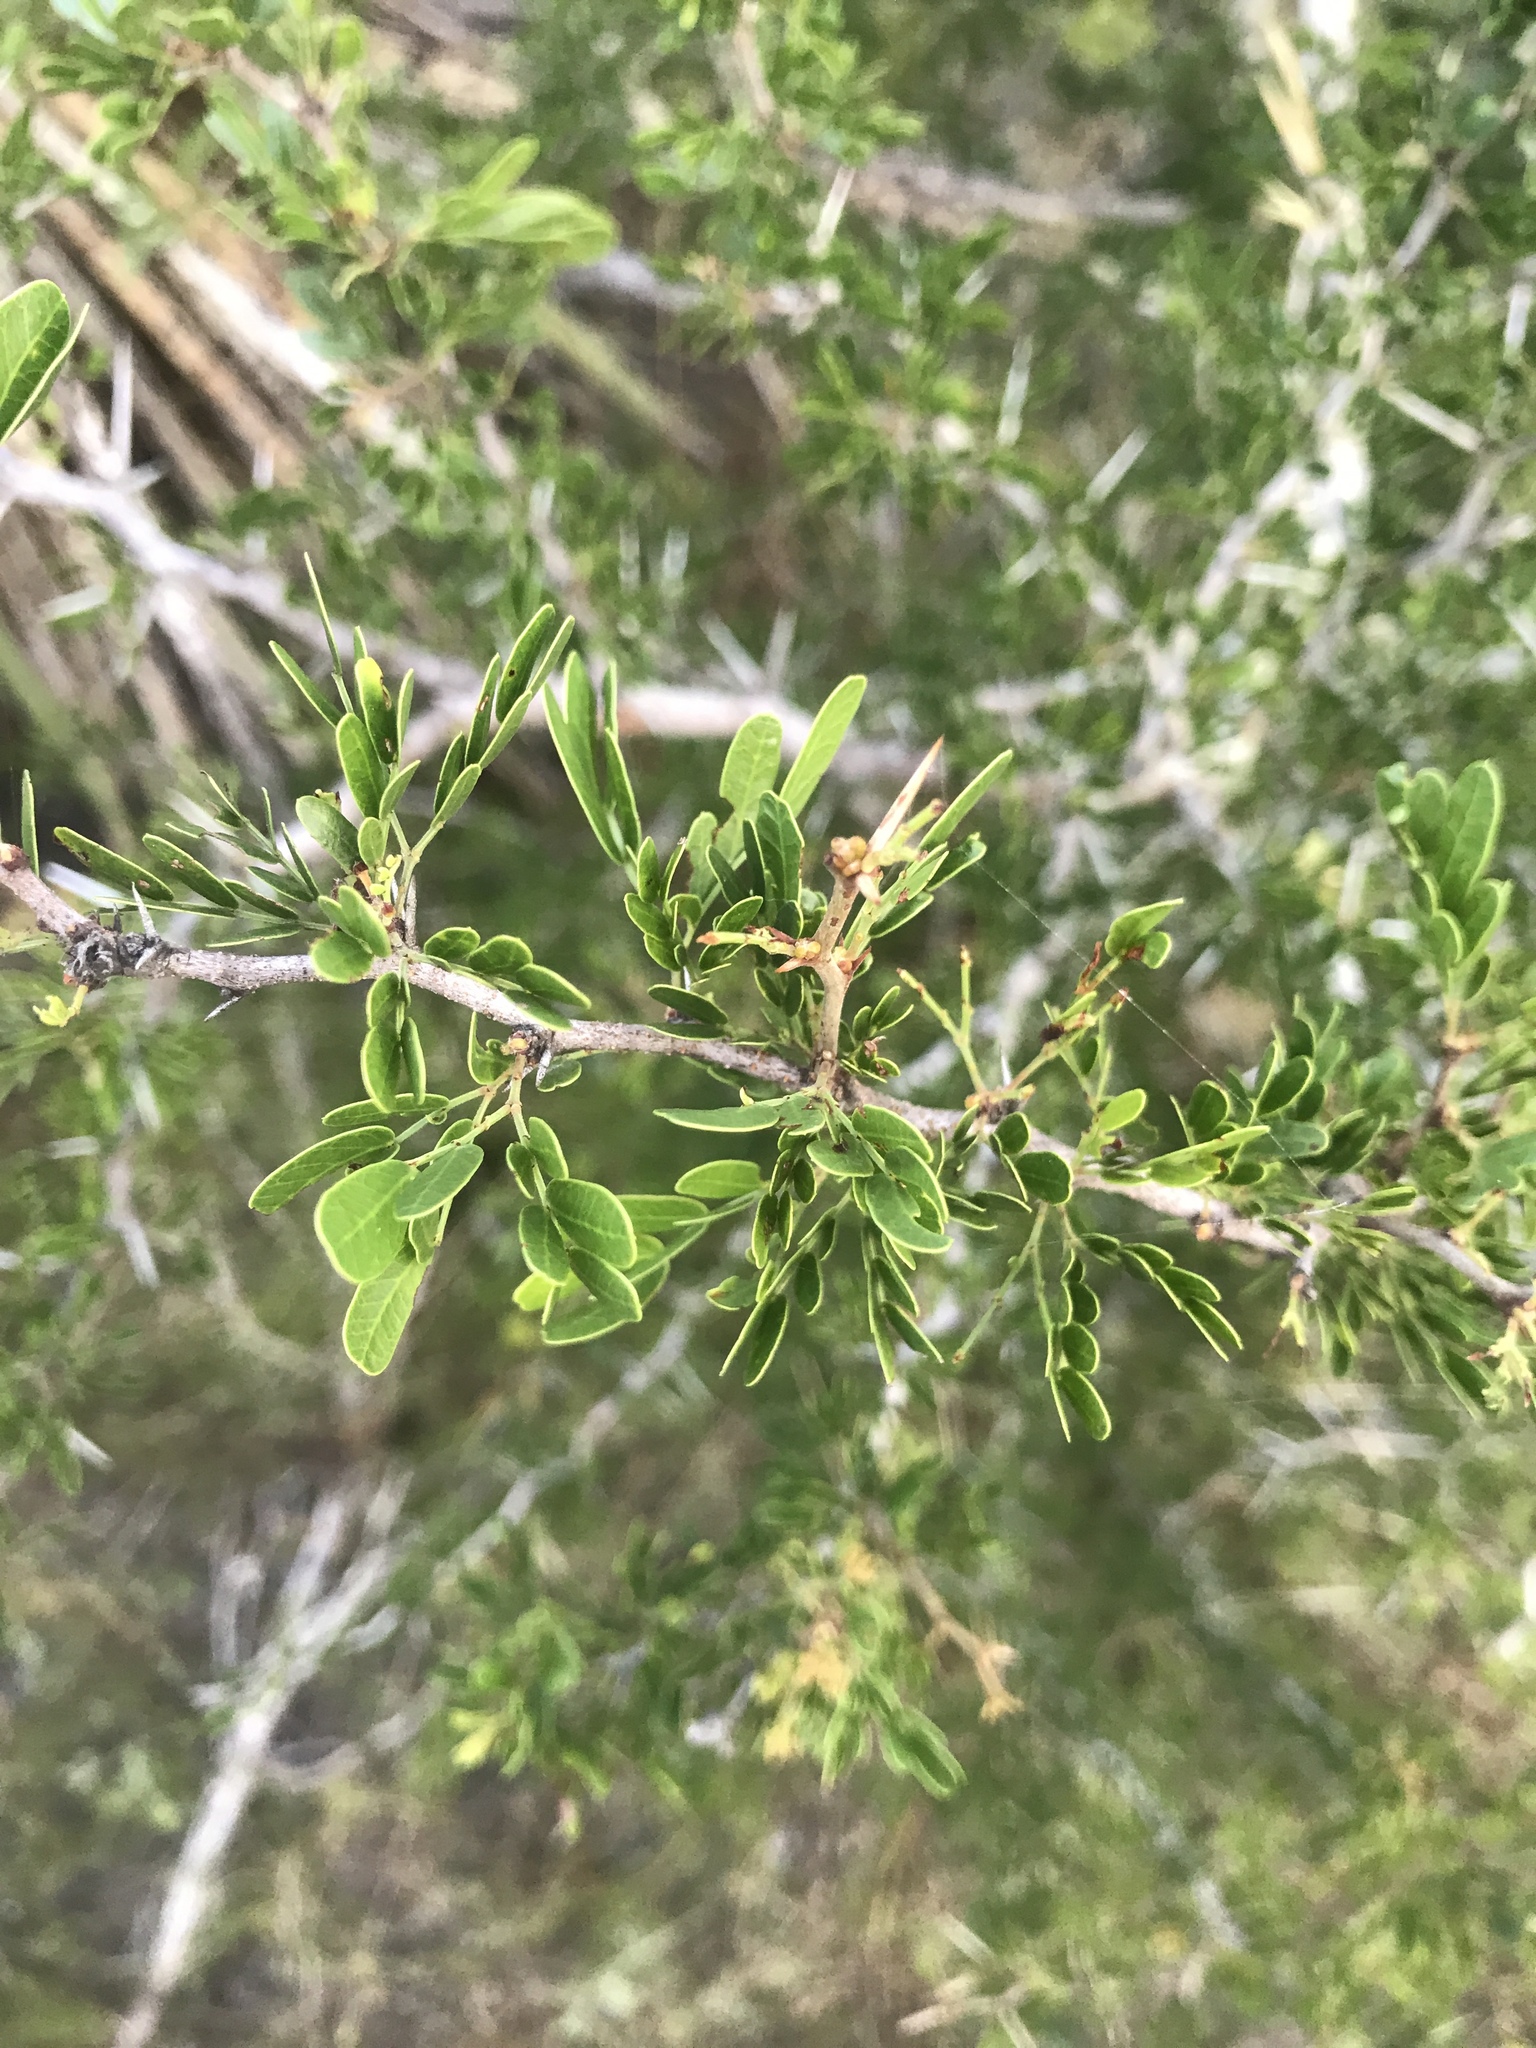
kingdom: Plantae
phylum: Tracheophyta
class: Magnoliopsida
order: Fabales
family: Fabaceae
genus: Vachellia
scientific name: Vachellia rigidula
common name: Blackbrush
